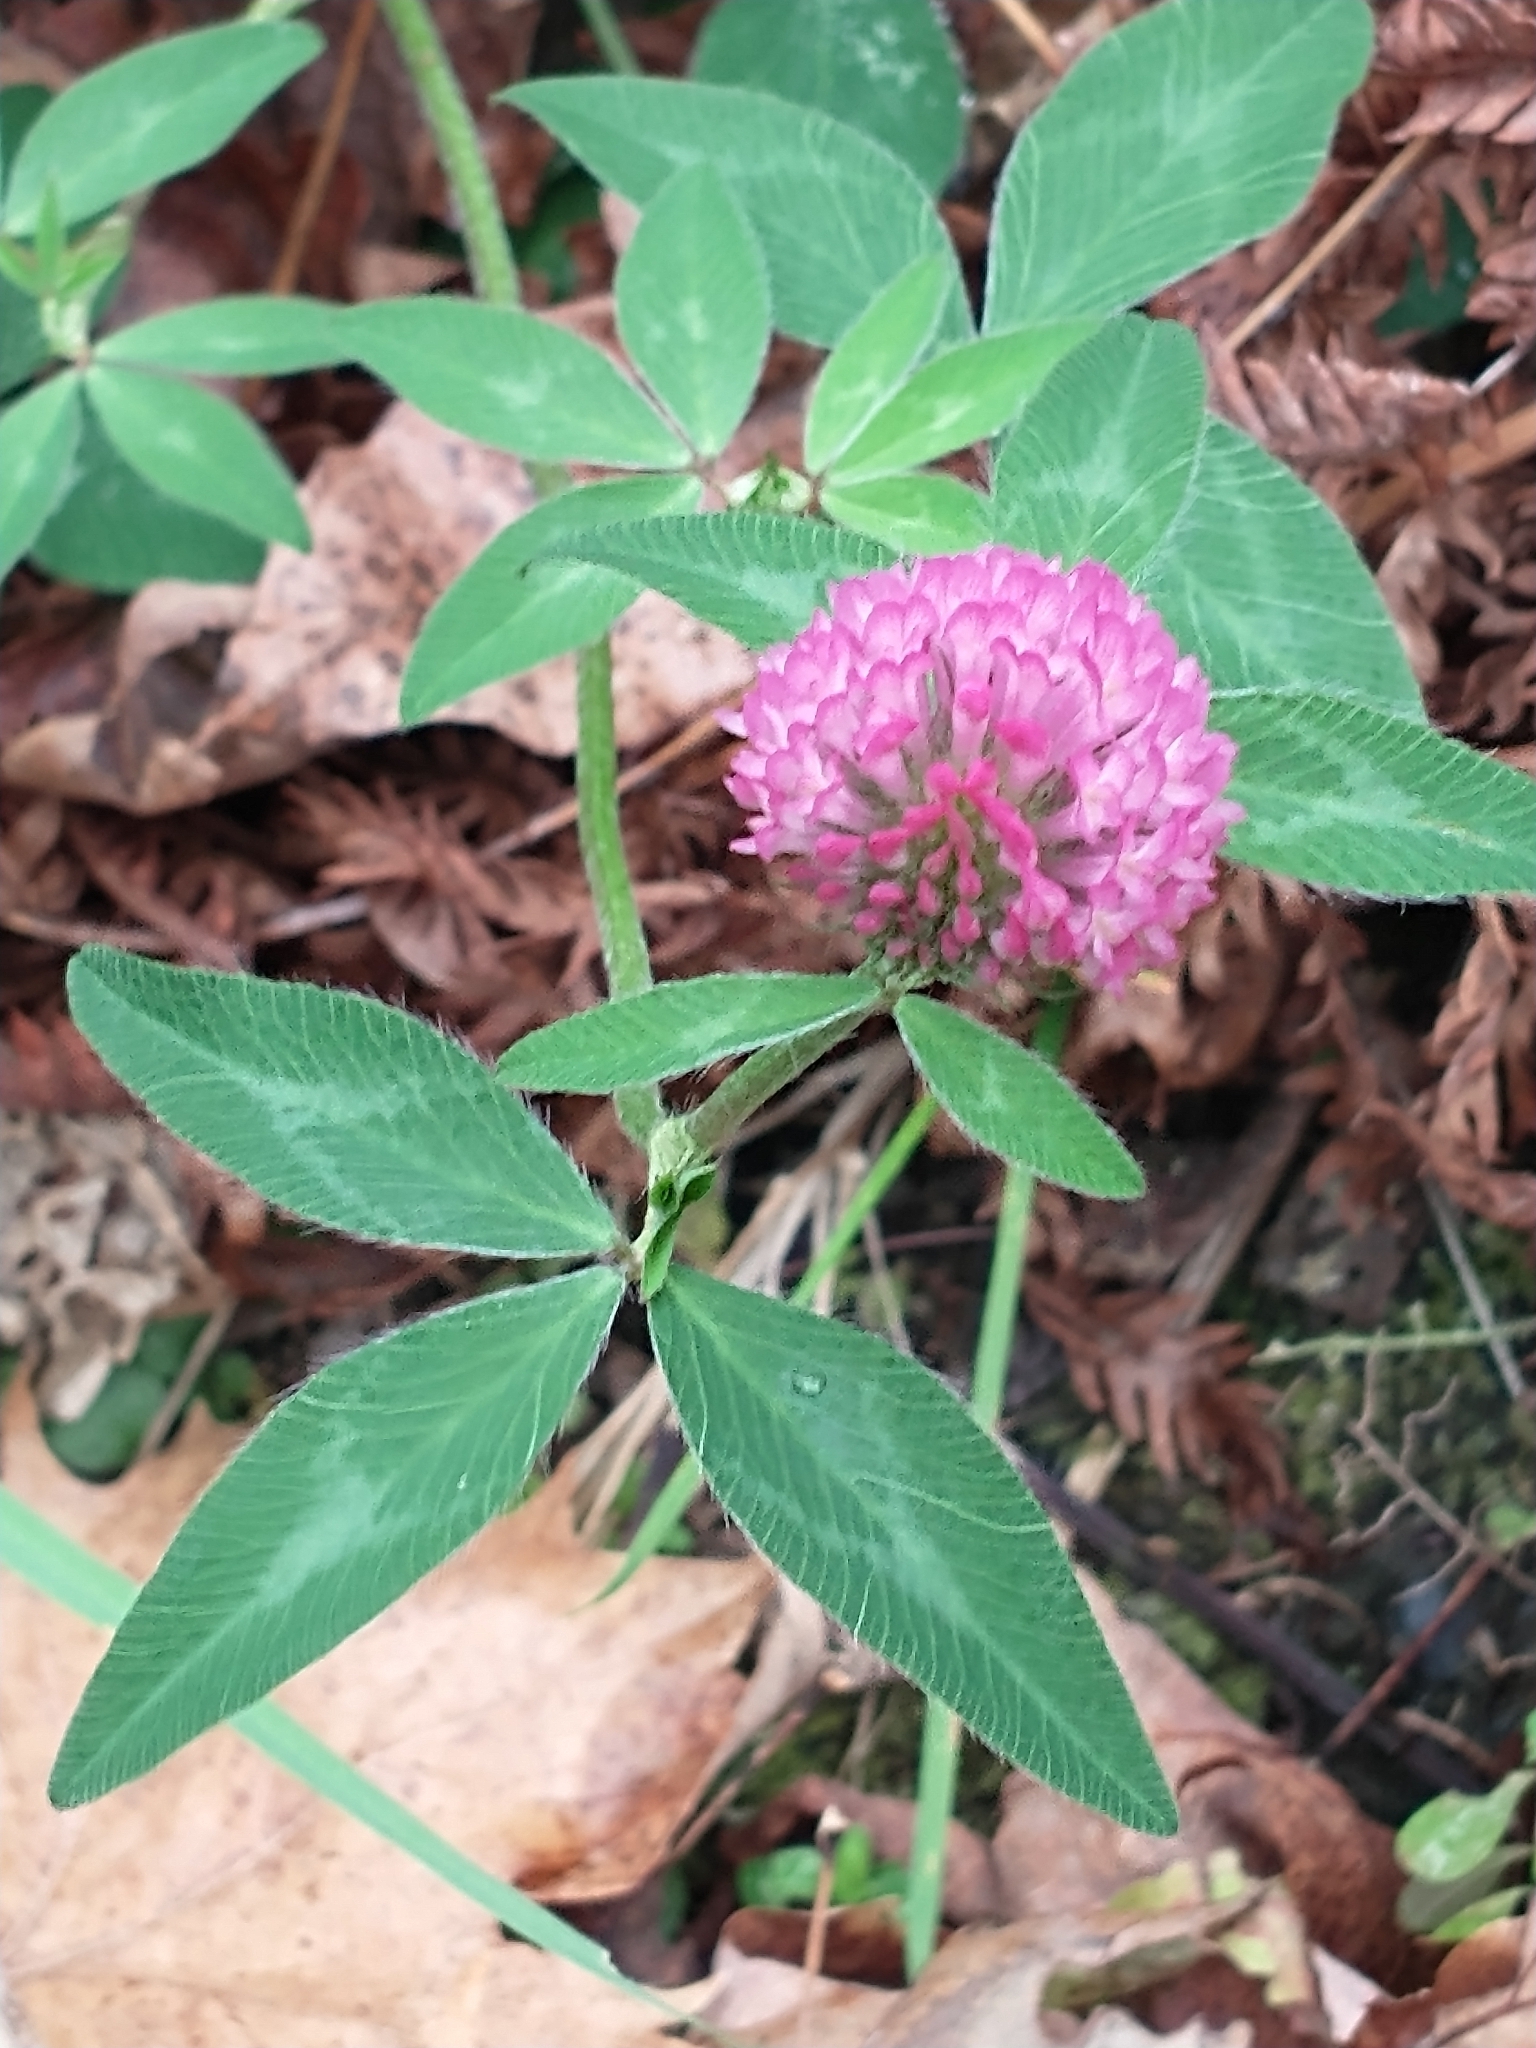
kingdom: Plantae
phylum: Tracheophyta
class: Magnoliopsida
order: Fabales
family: Fabaceae
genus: Trifolium
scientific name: Trifolium pratense
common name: Red clover
